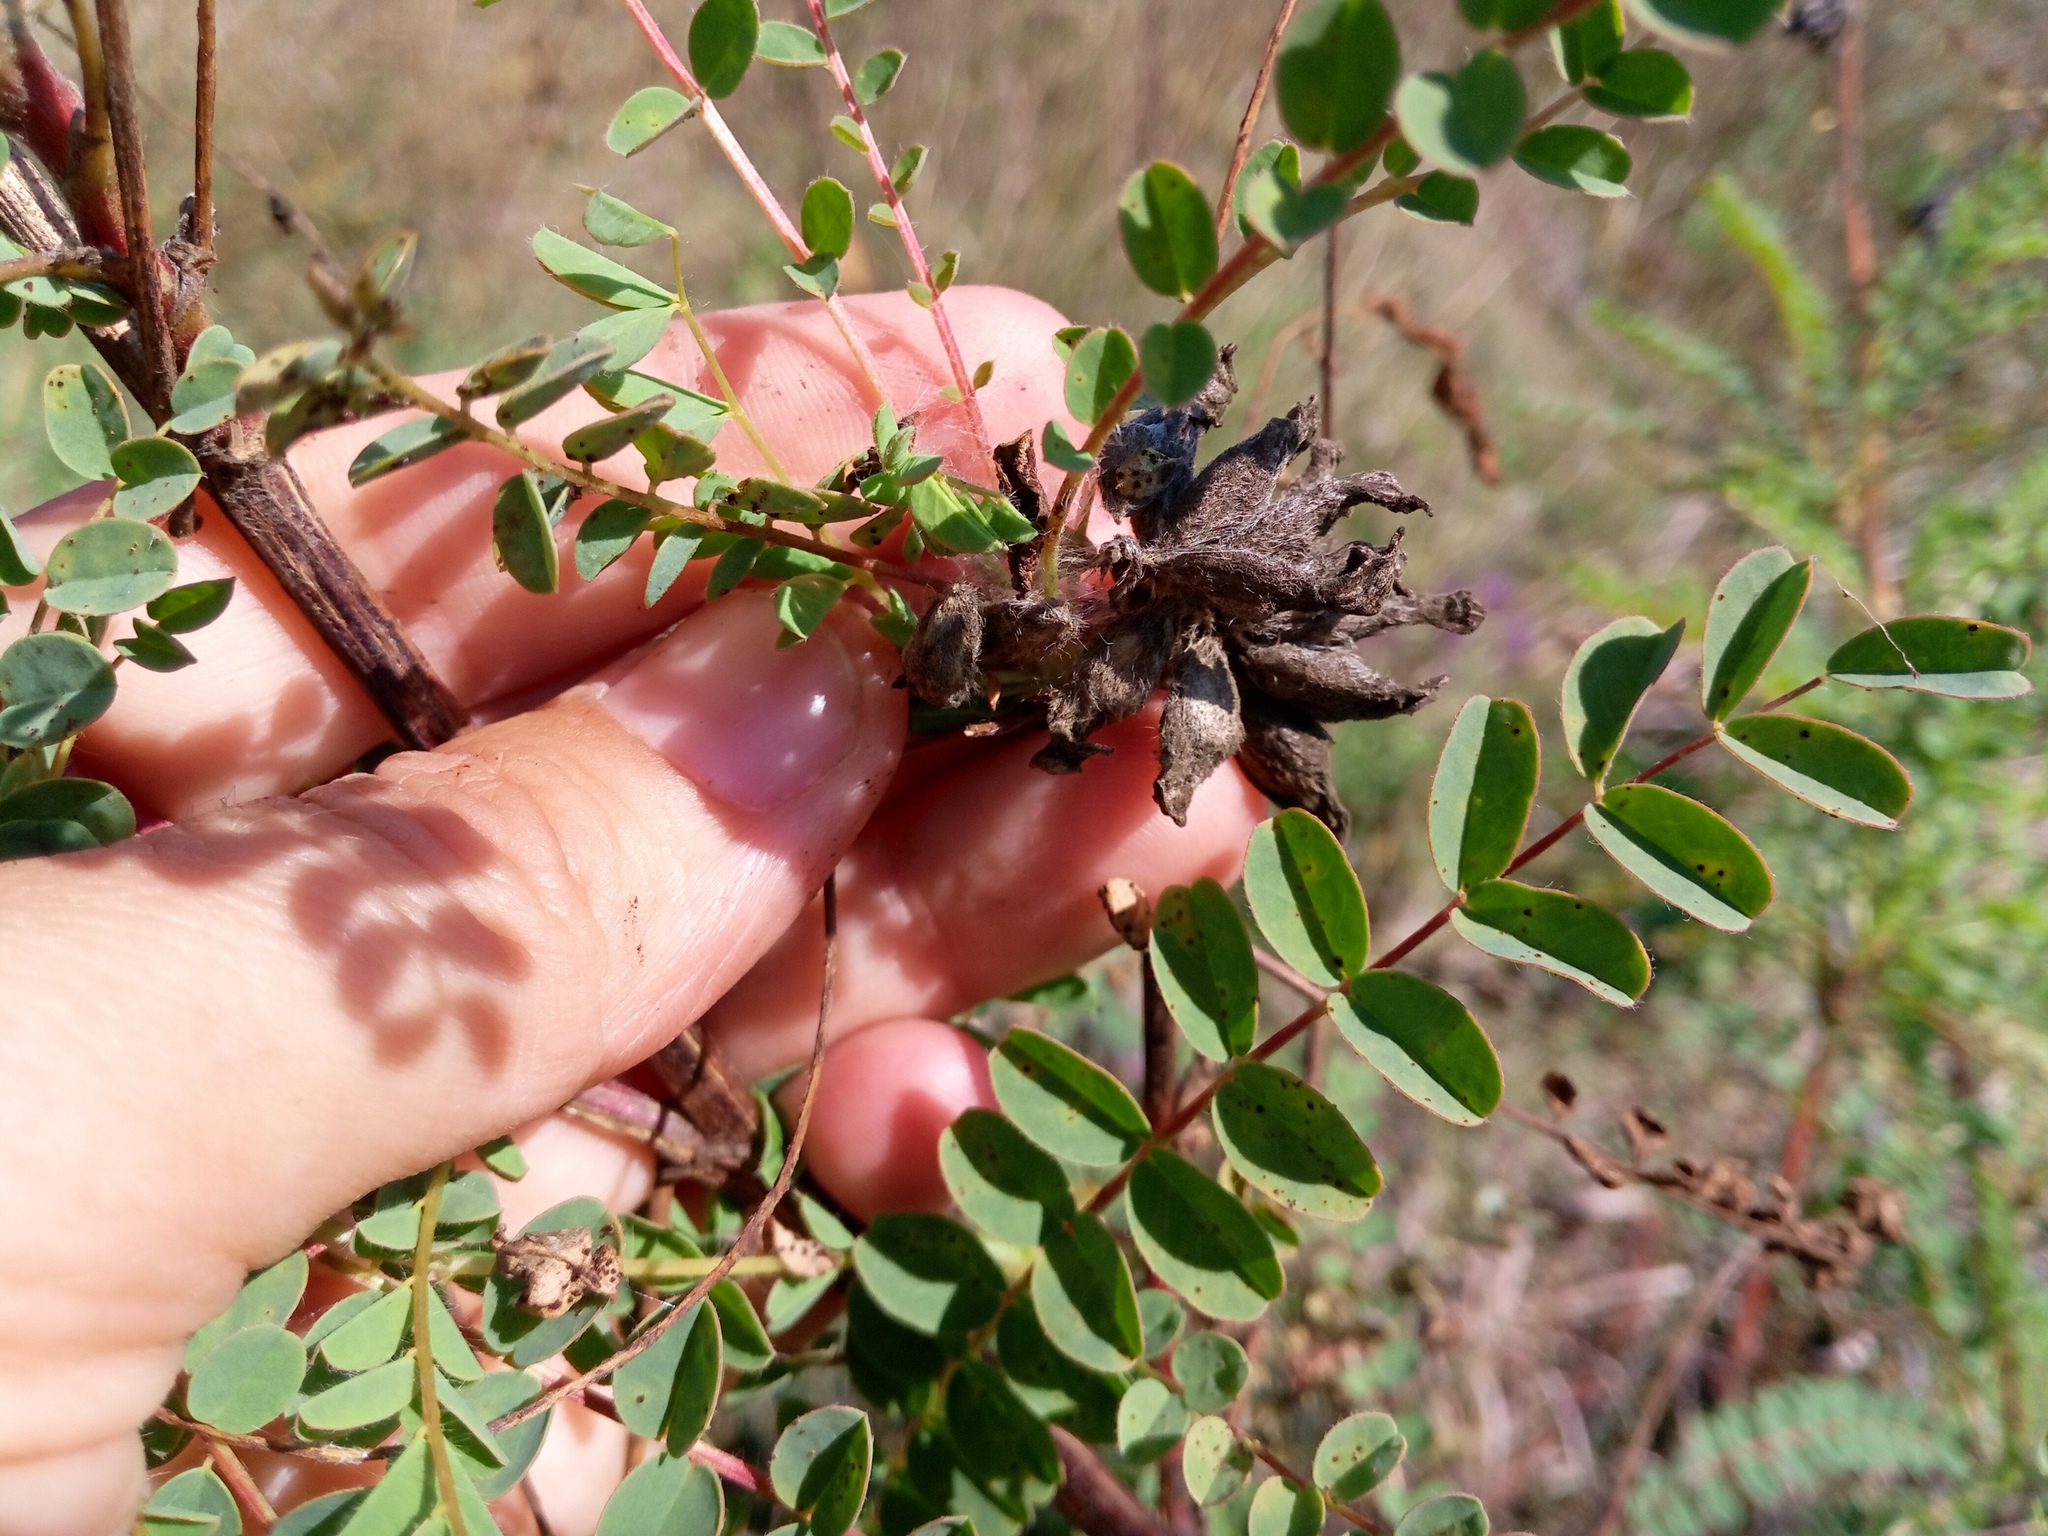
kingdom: Plantae
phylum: Tracheophyta
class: Magnoliopsida
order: Fabales
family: Fabaceae
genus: Astragalus
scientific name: Astragalus ponticus
